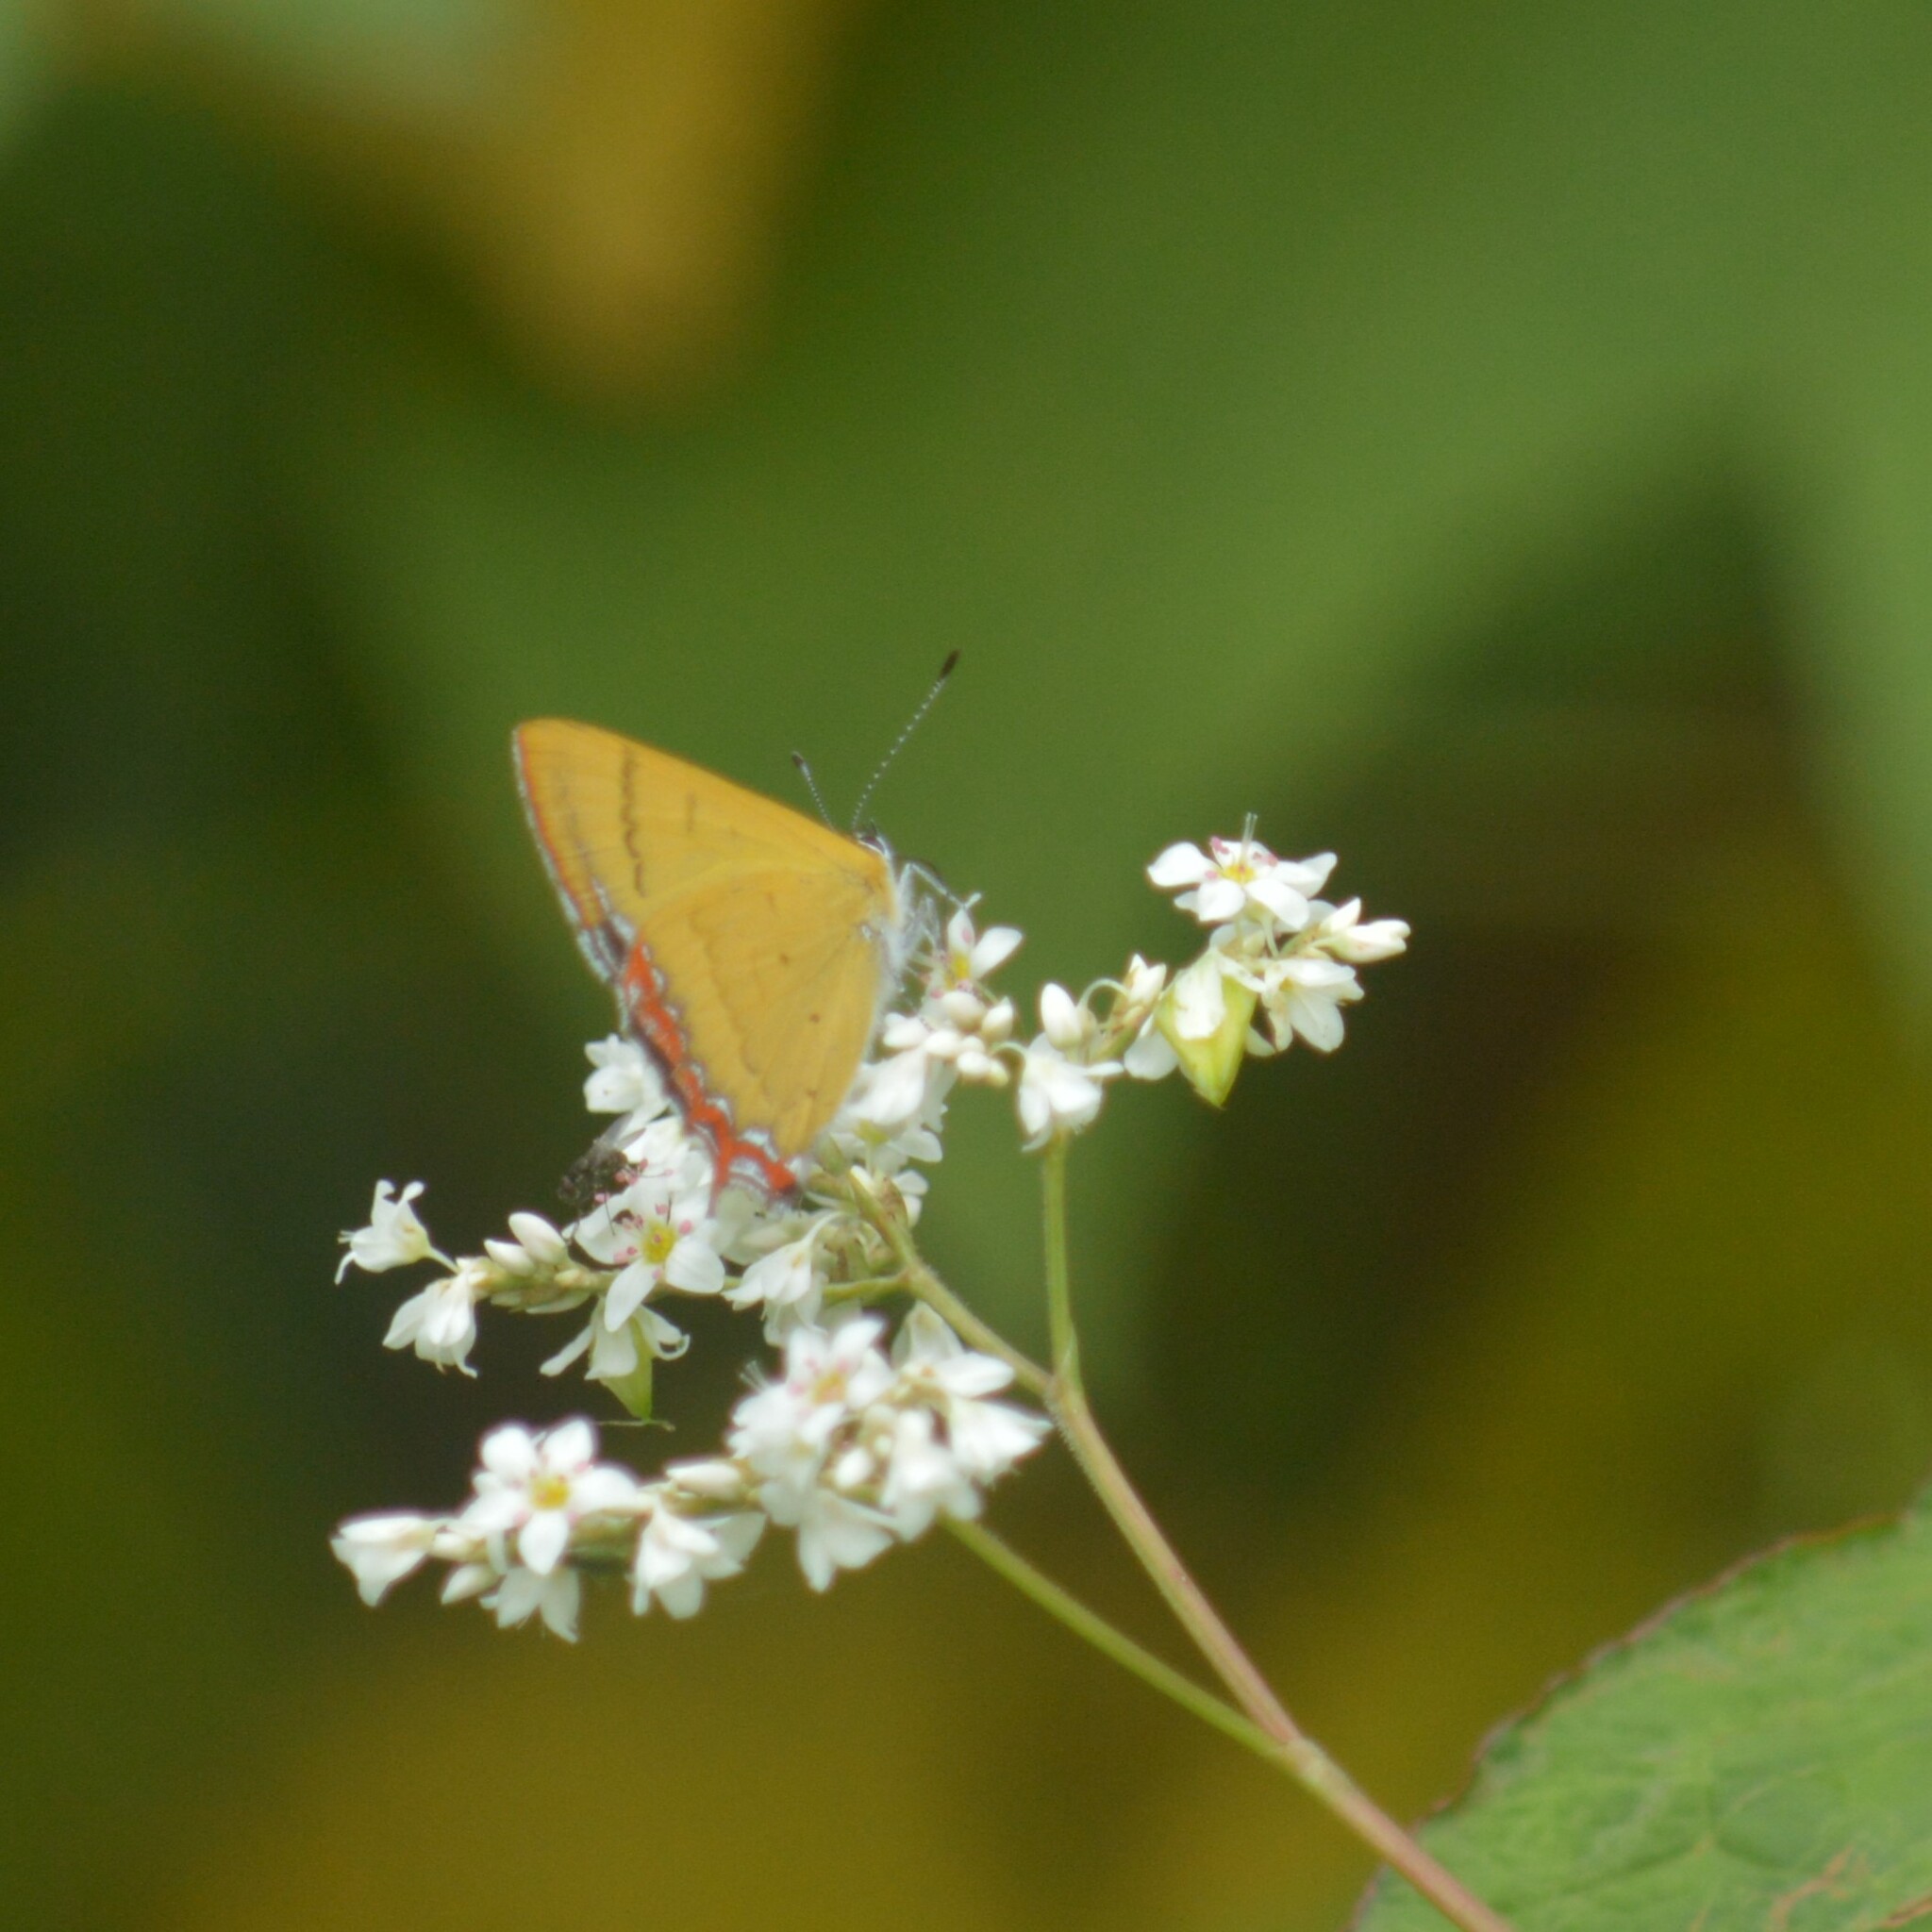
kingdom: Animalia
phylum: Arthropoda
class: Insecta
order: Lepidoptera
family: Lycaenidae
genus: Heliophorus
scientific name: Heliophorus
